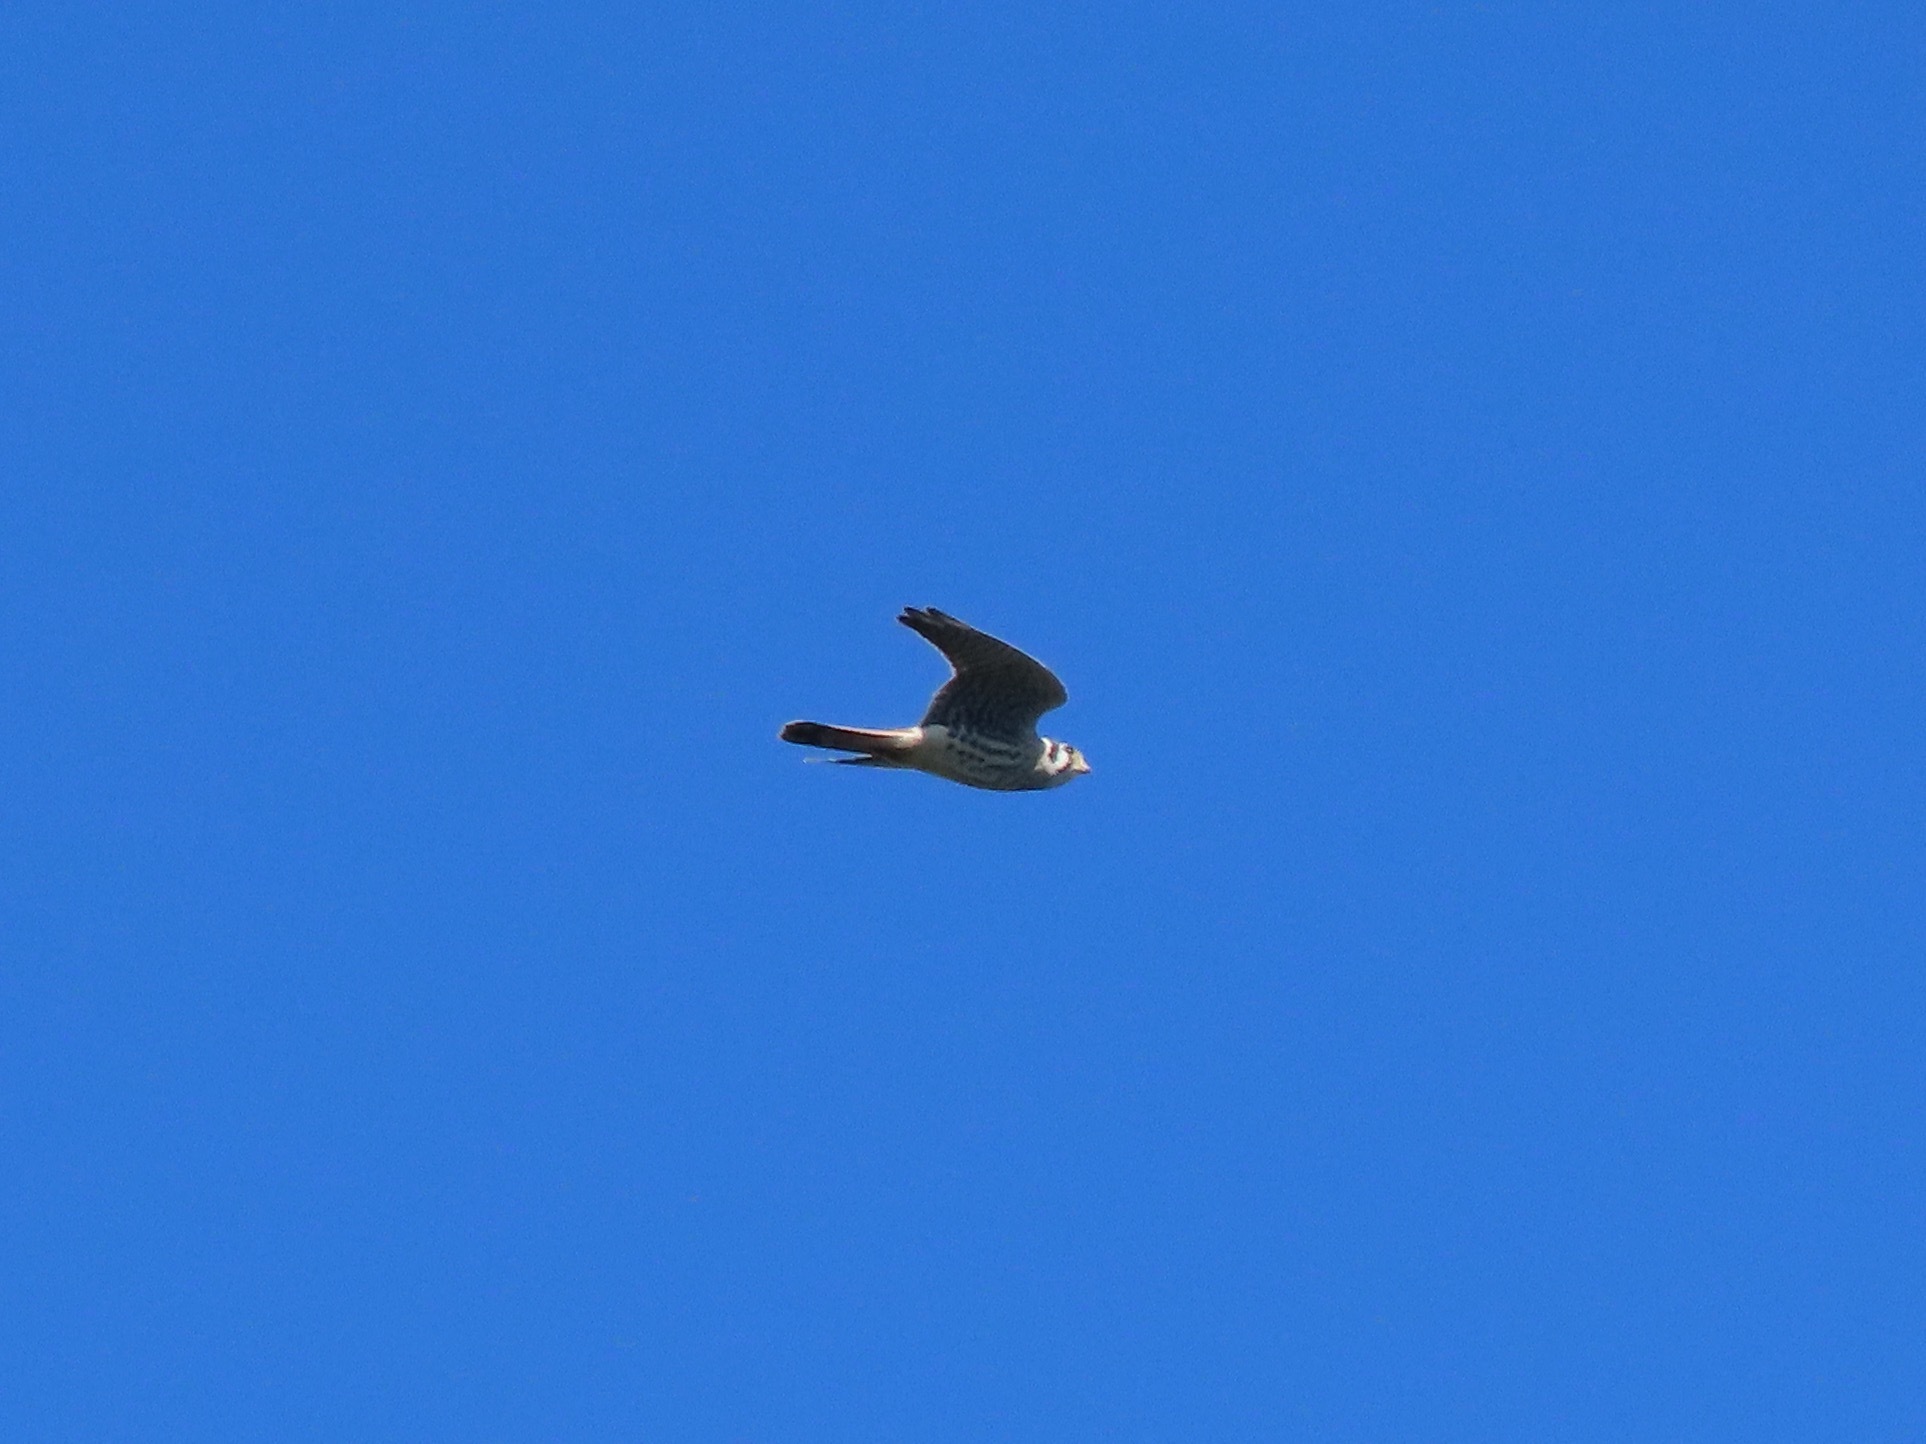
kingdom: Animalia
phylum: Chordata
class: Aves
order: Falconiformes
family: Falconidae
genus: Falco
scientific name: Falco sparverius
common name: American kestrel
